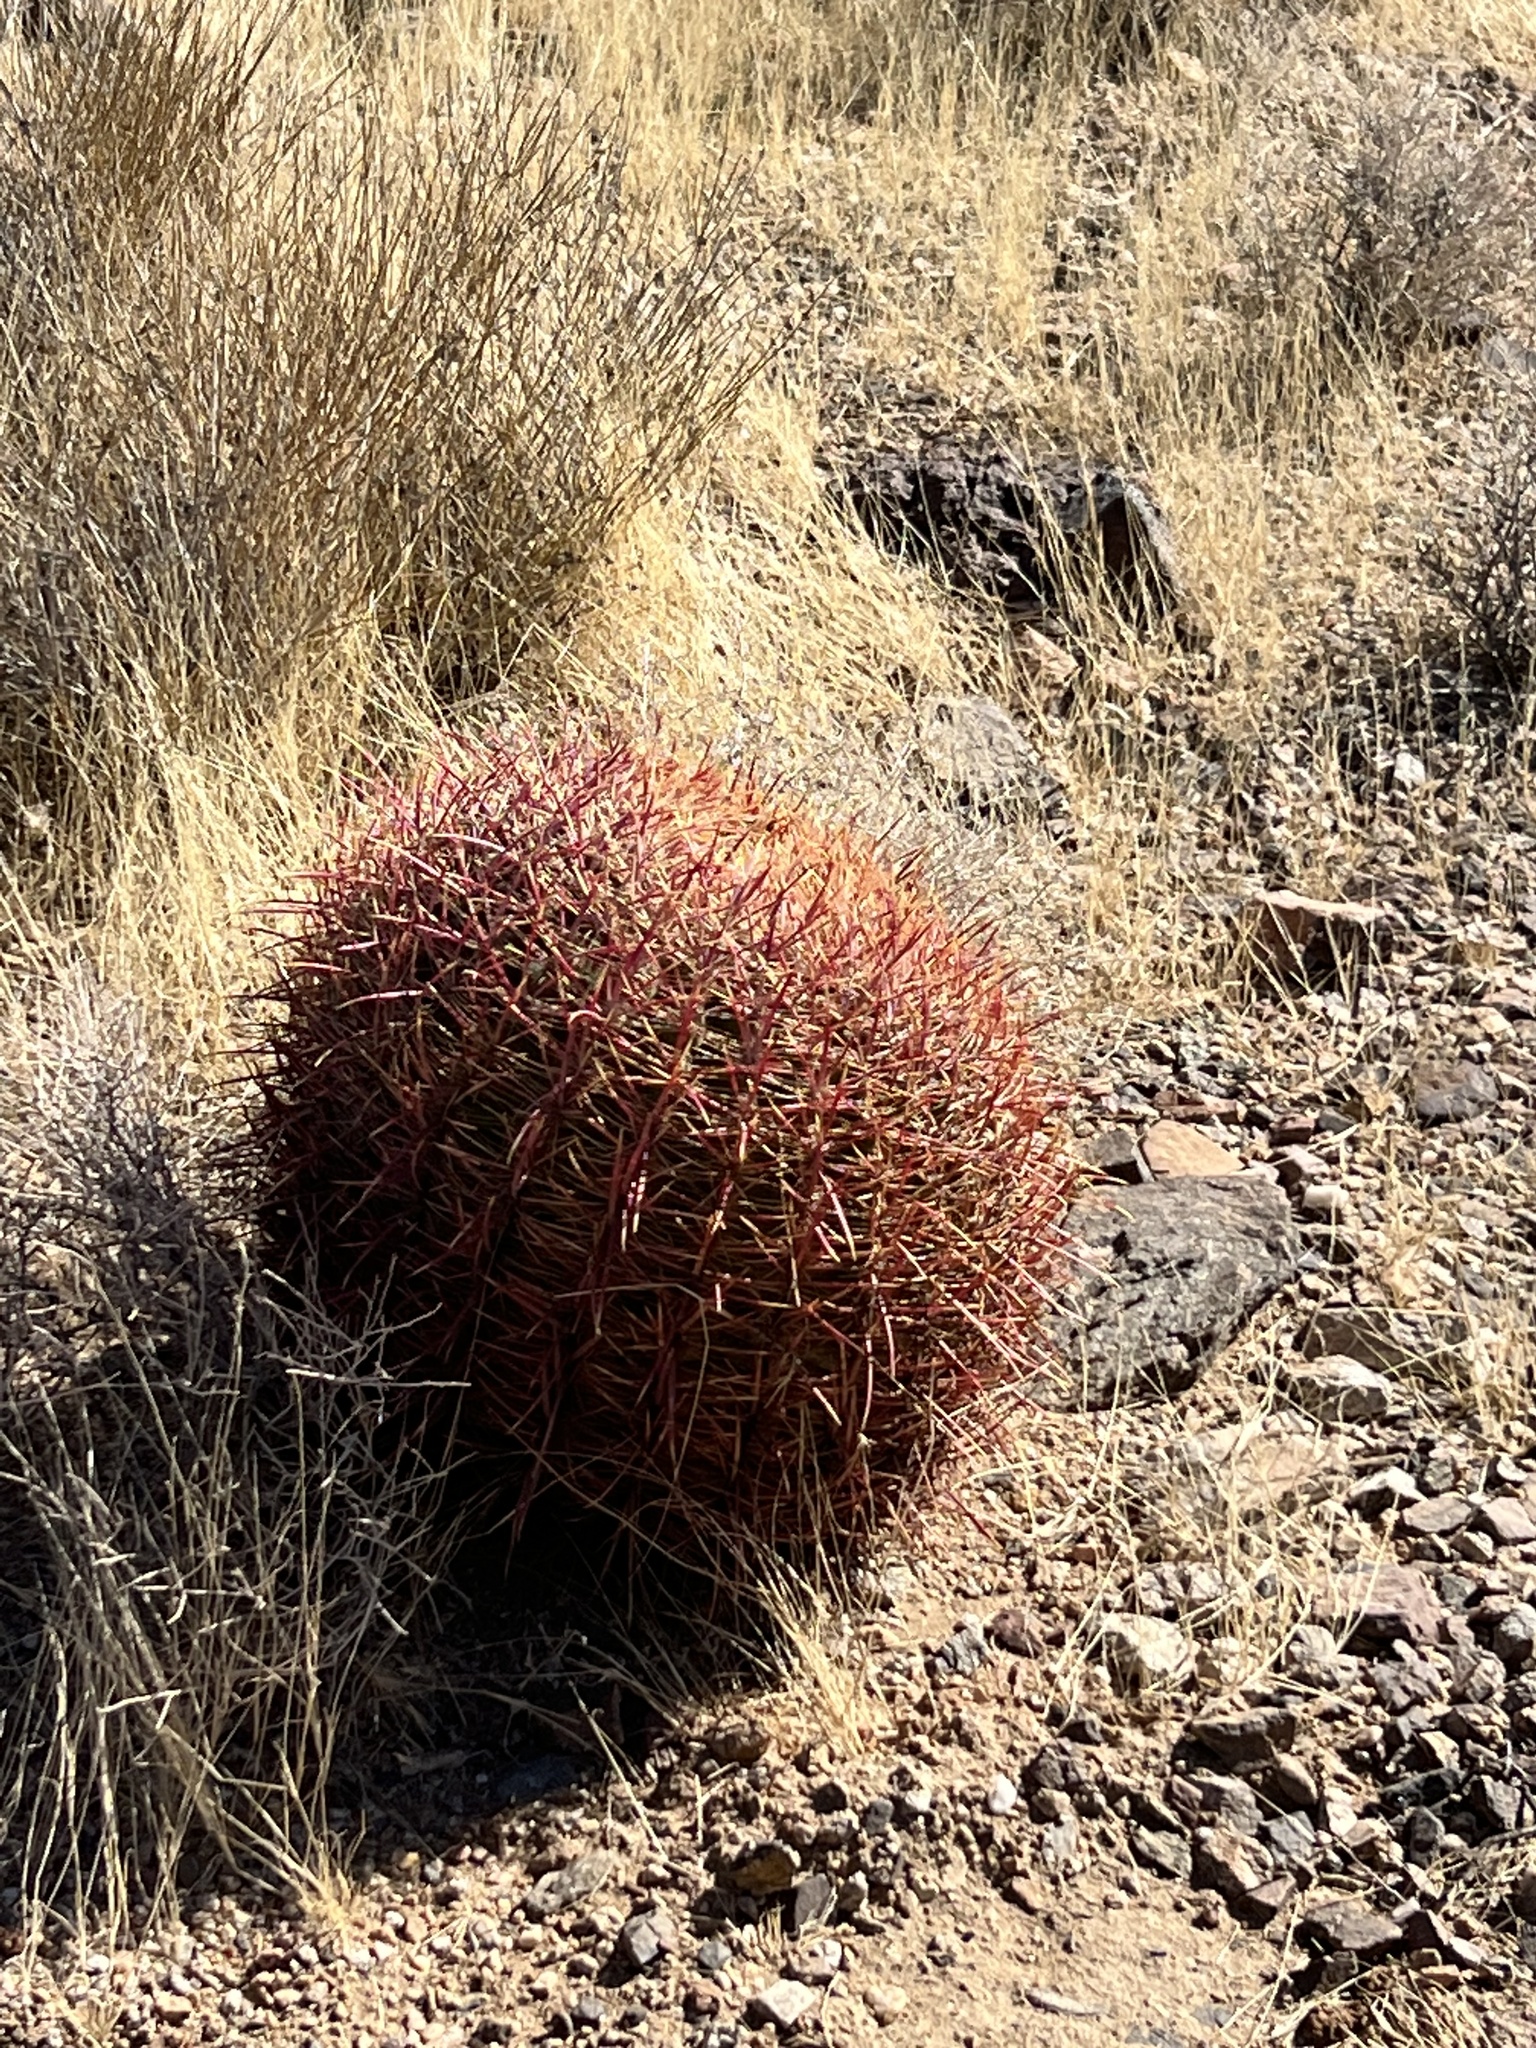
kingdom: Plantae
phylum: Tracheophyta
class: Magnoliopsida
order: Caryophyllales
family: Cactaceae
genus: Ferocactus
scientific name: Ferocactus cylindraceus
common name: California barrel cactus
